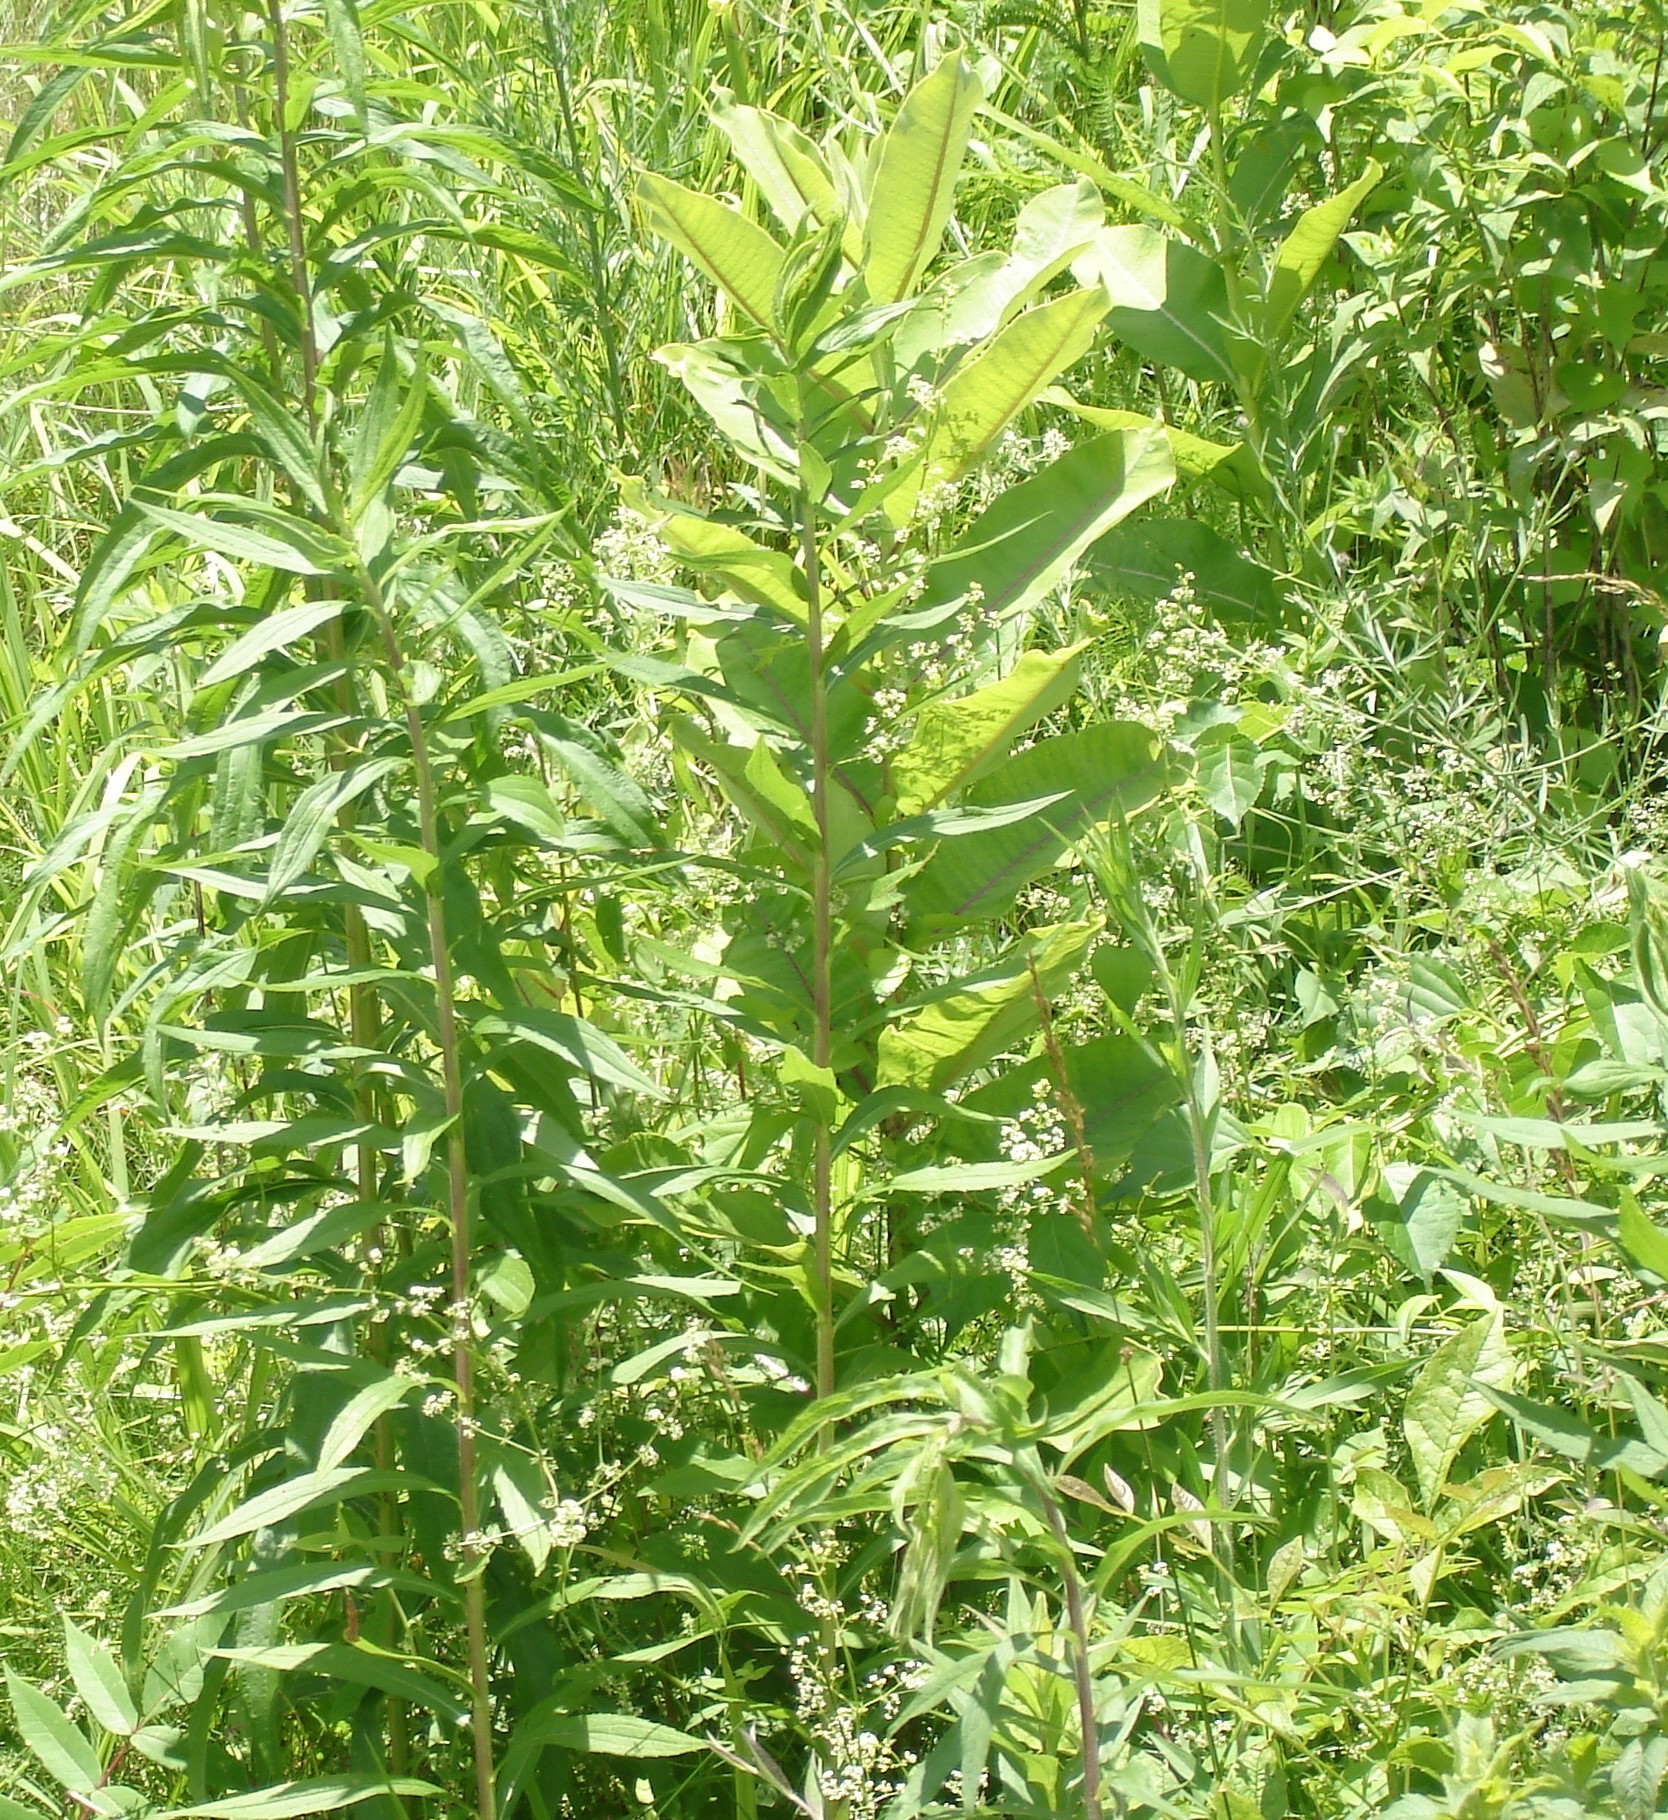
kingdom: Plantae
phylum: Tracheophyta
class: Magnoliopsida
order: Gentianales
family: Apocynaceae
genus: Asclepias
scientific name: Asclepias syriaca
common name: Common milkweed
